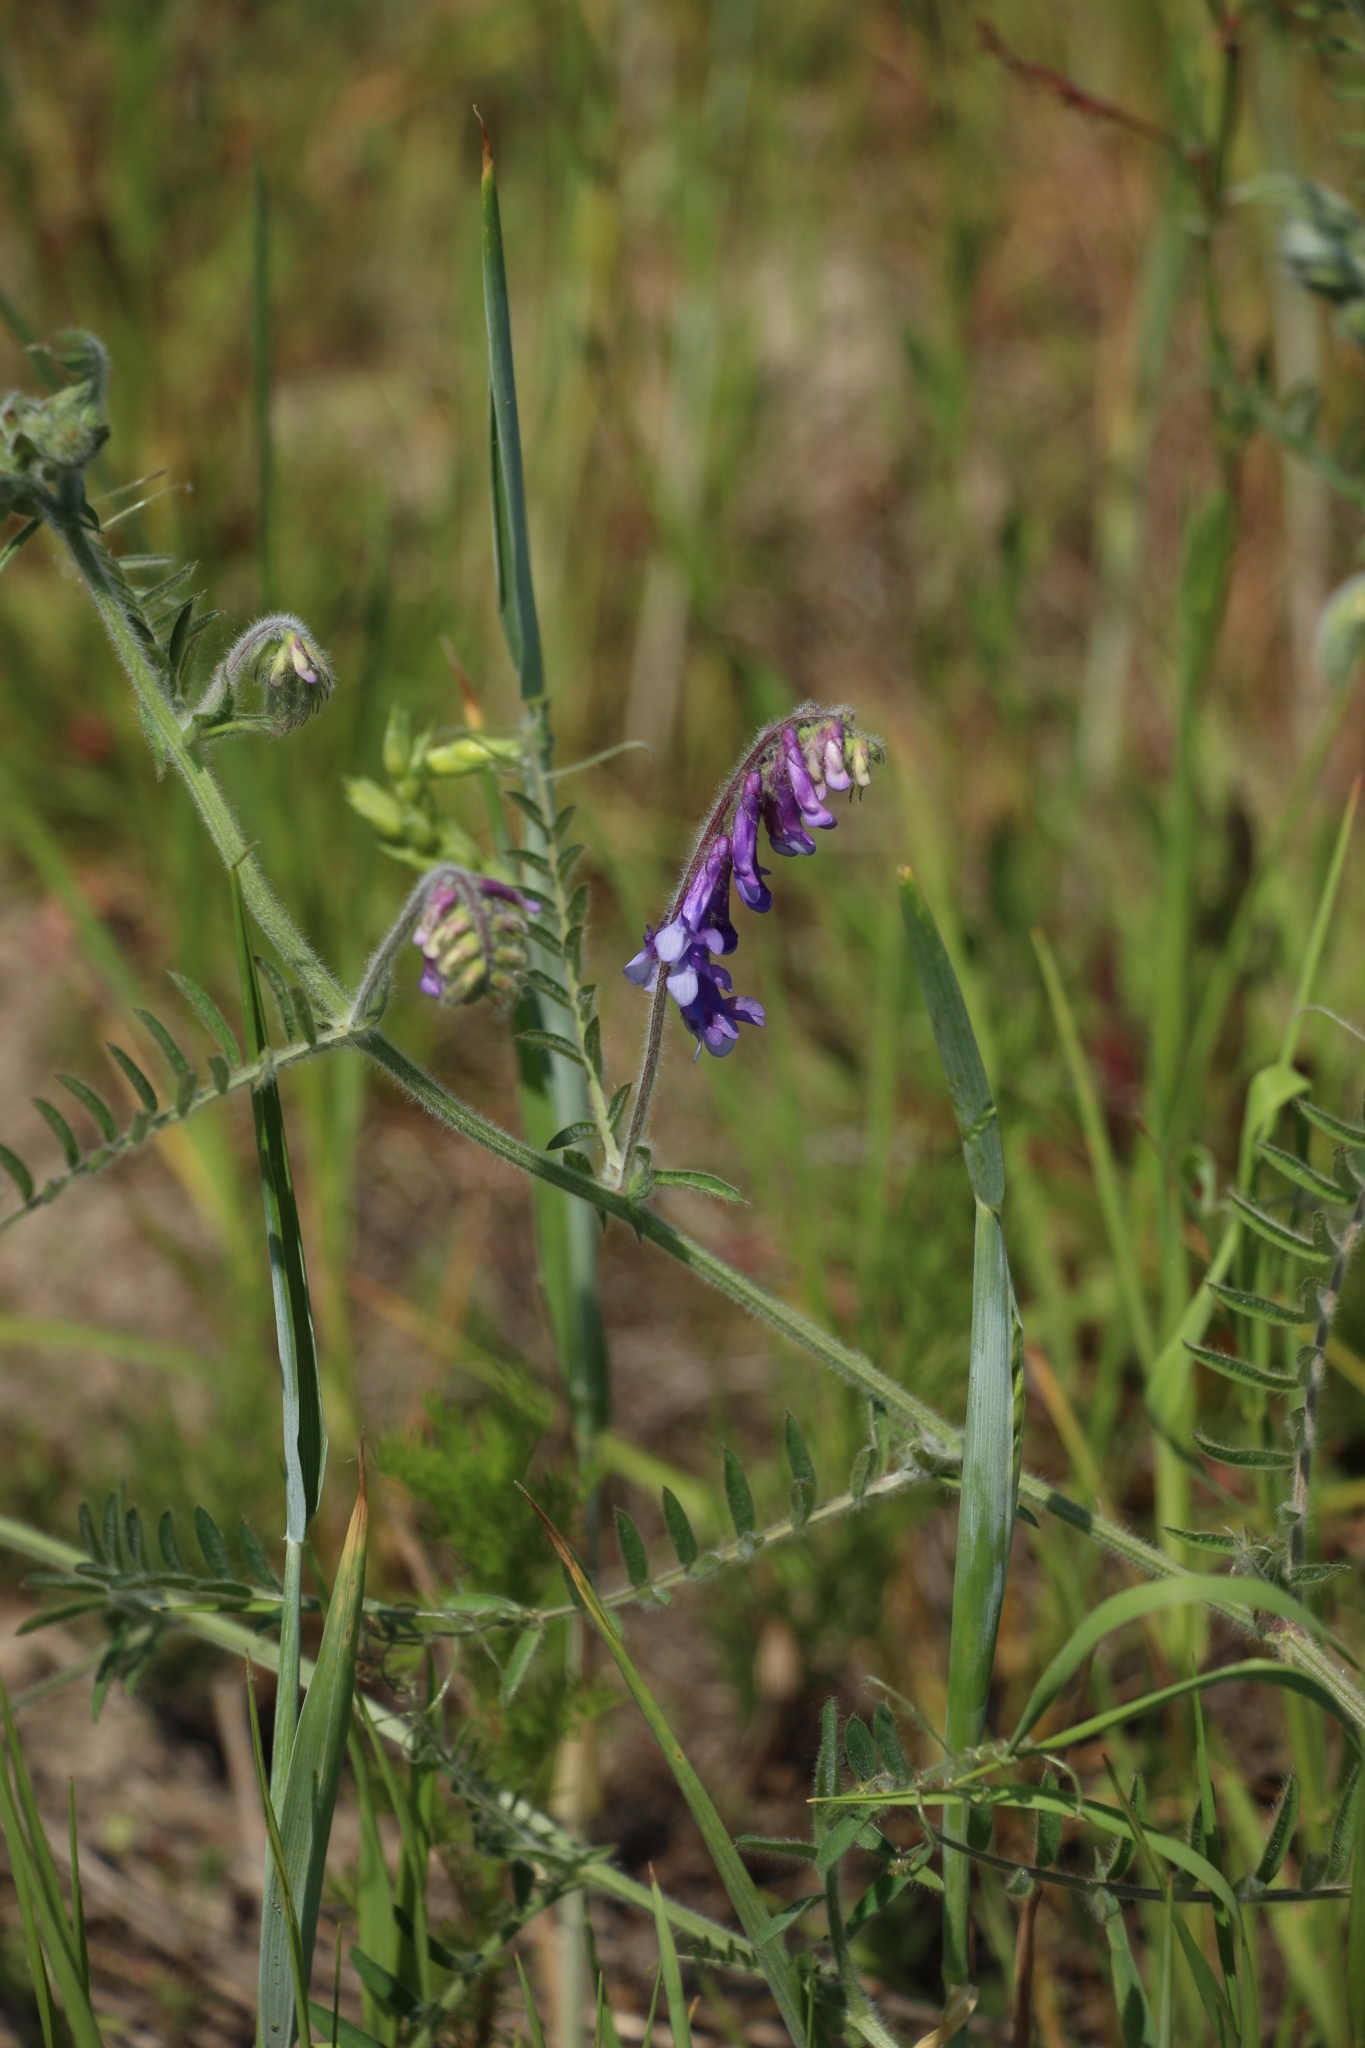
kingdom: Plantae
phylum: Tracheophyta
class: Magnoliopsida
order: Fabales
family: Fabaceae
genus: Vicia
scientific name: Vicia villosa
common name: Fodder vetch
